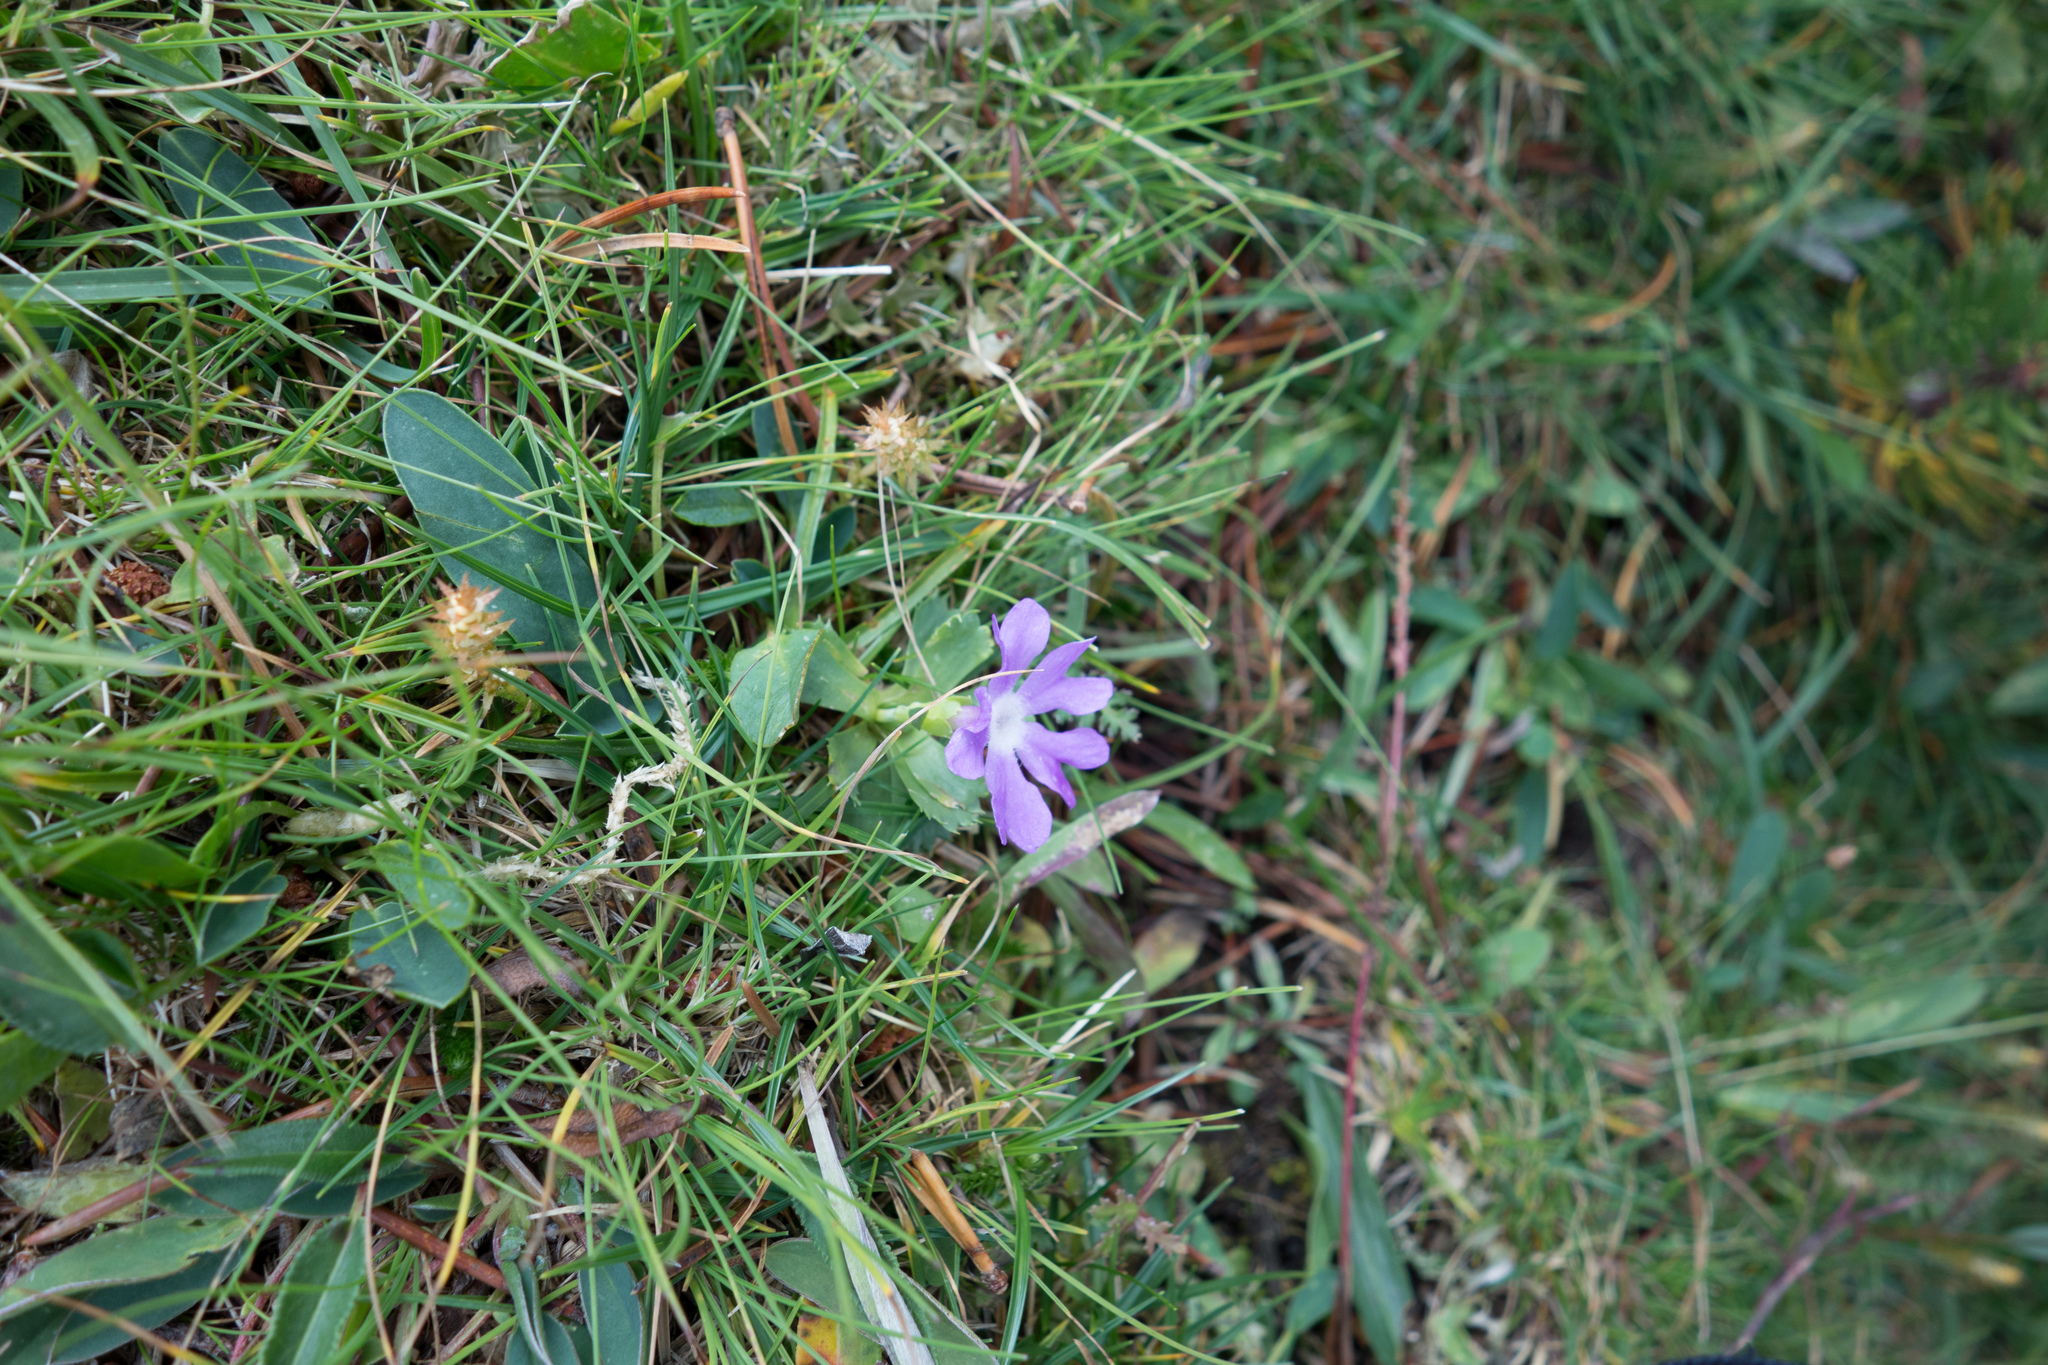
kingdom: Plantae
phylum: Tracheophyta
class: Magnoliopsida
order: Ericales
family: Primulaceae
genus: Primula
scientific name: Primula minima
